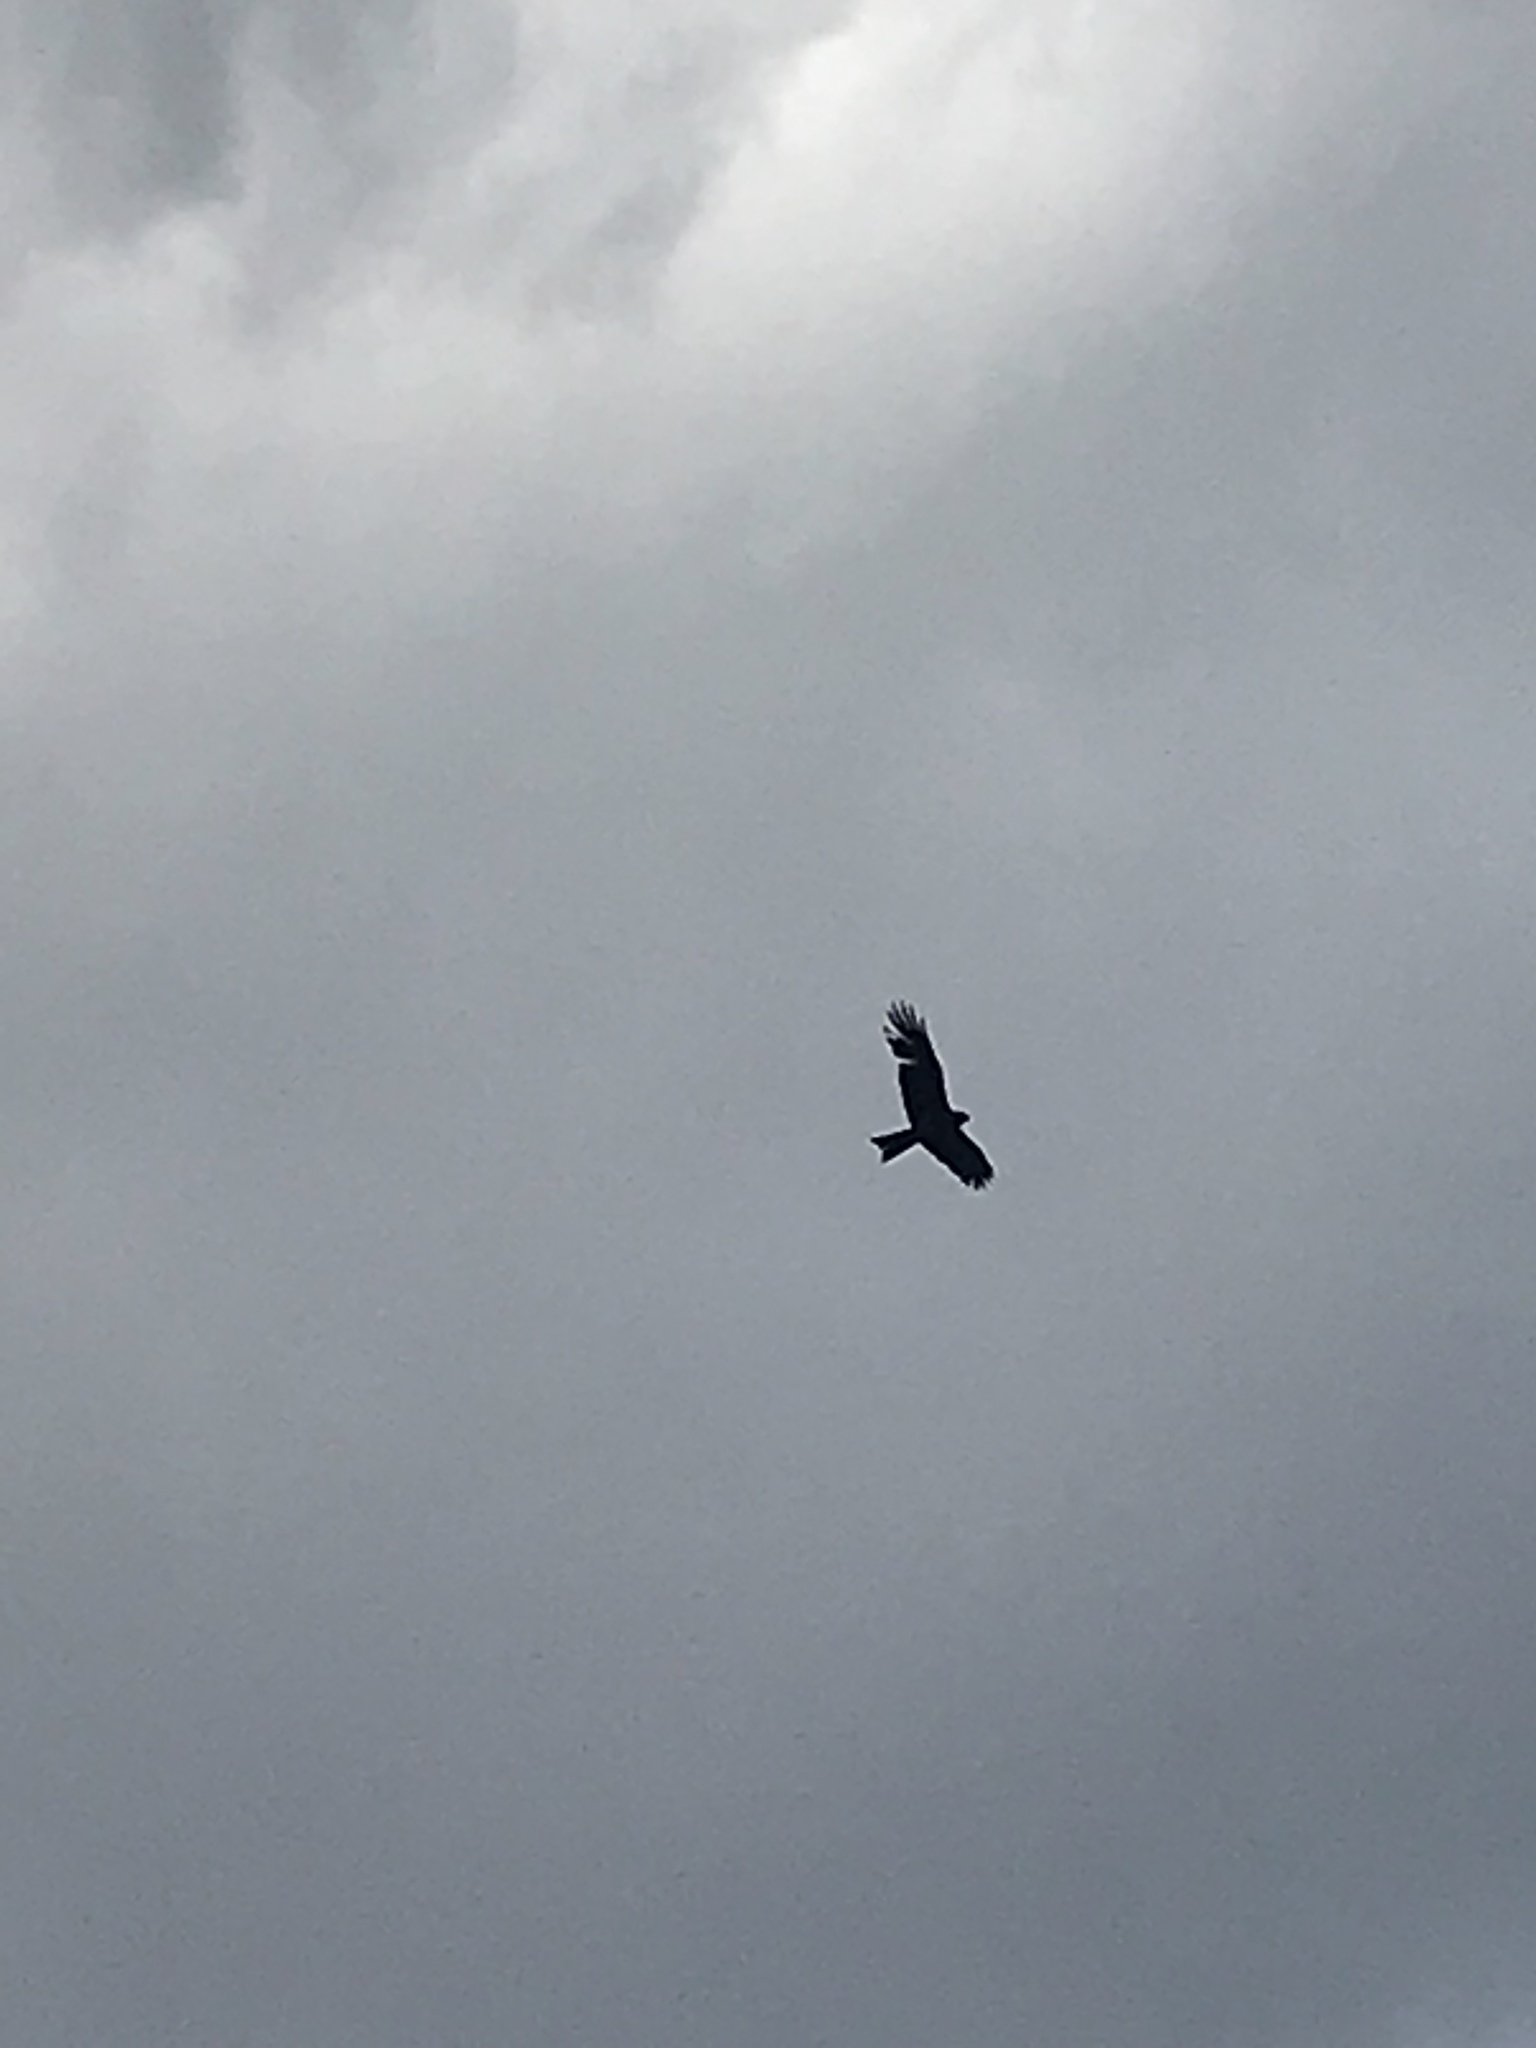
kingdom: Animalia
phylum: Chordata
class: Aves
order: Accipitriformes
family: Accipitridae
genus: Milvus
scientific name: Milvus migrans
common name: Black kite
